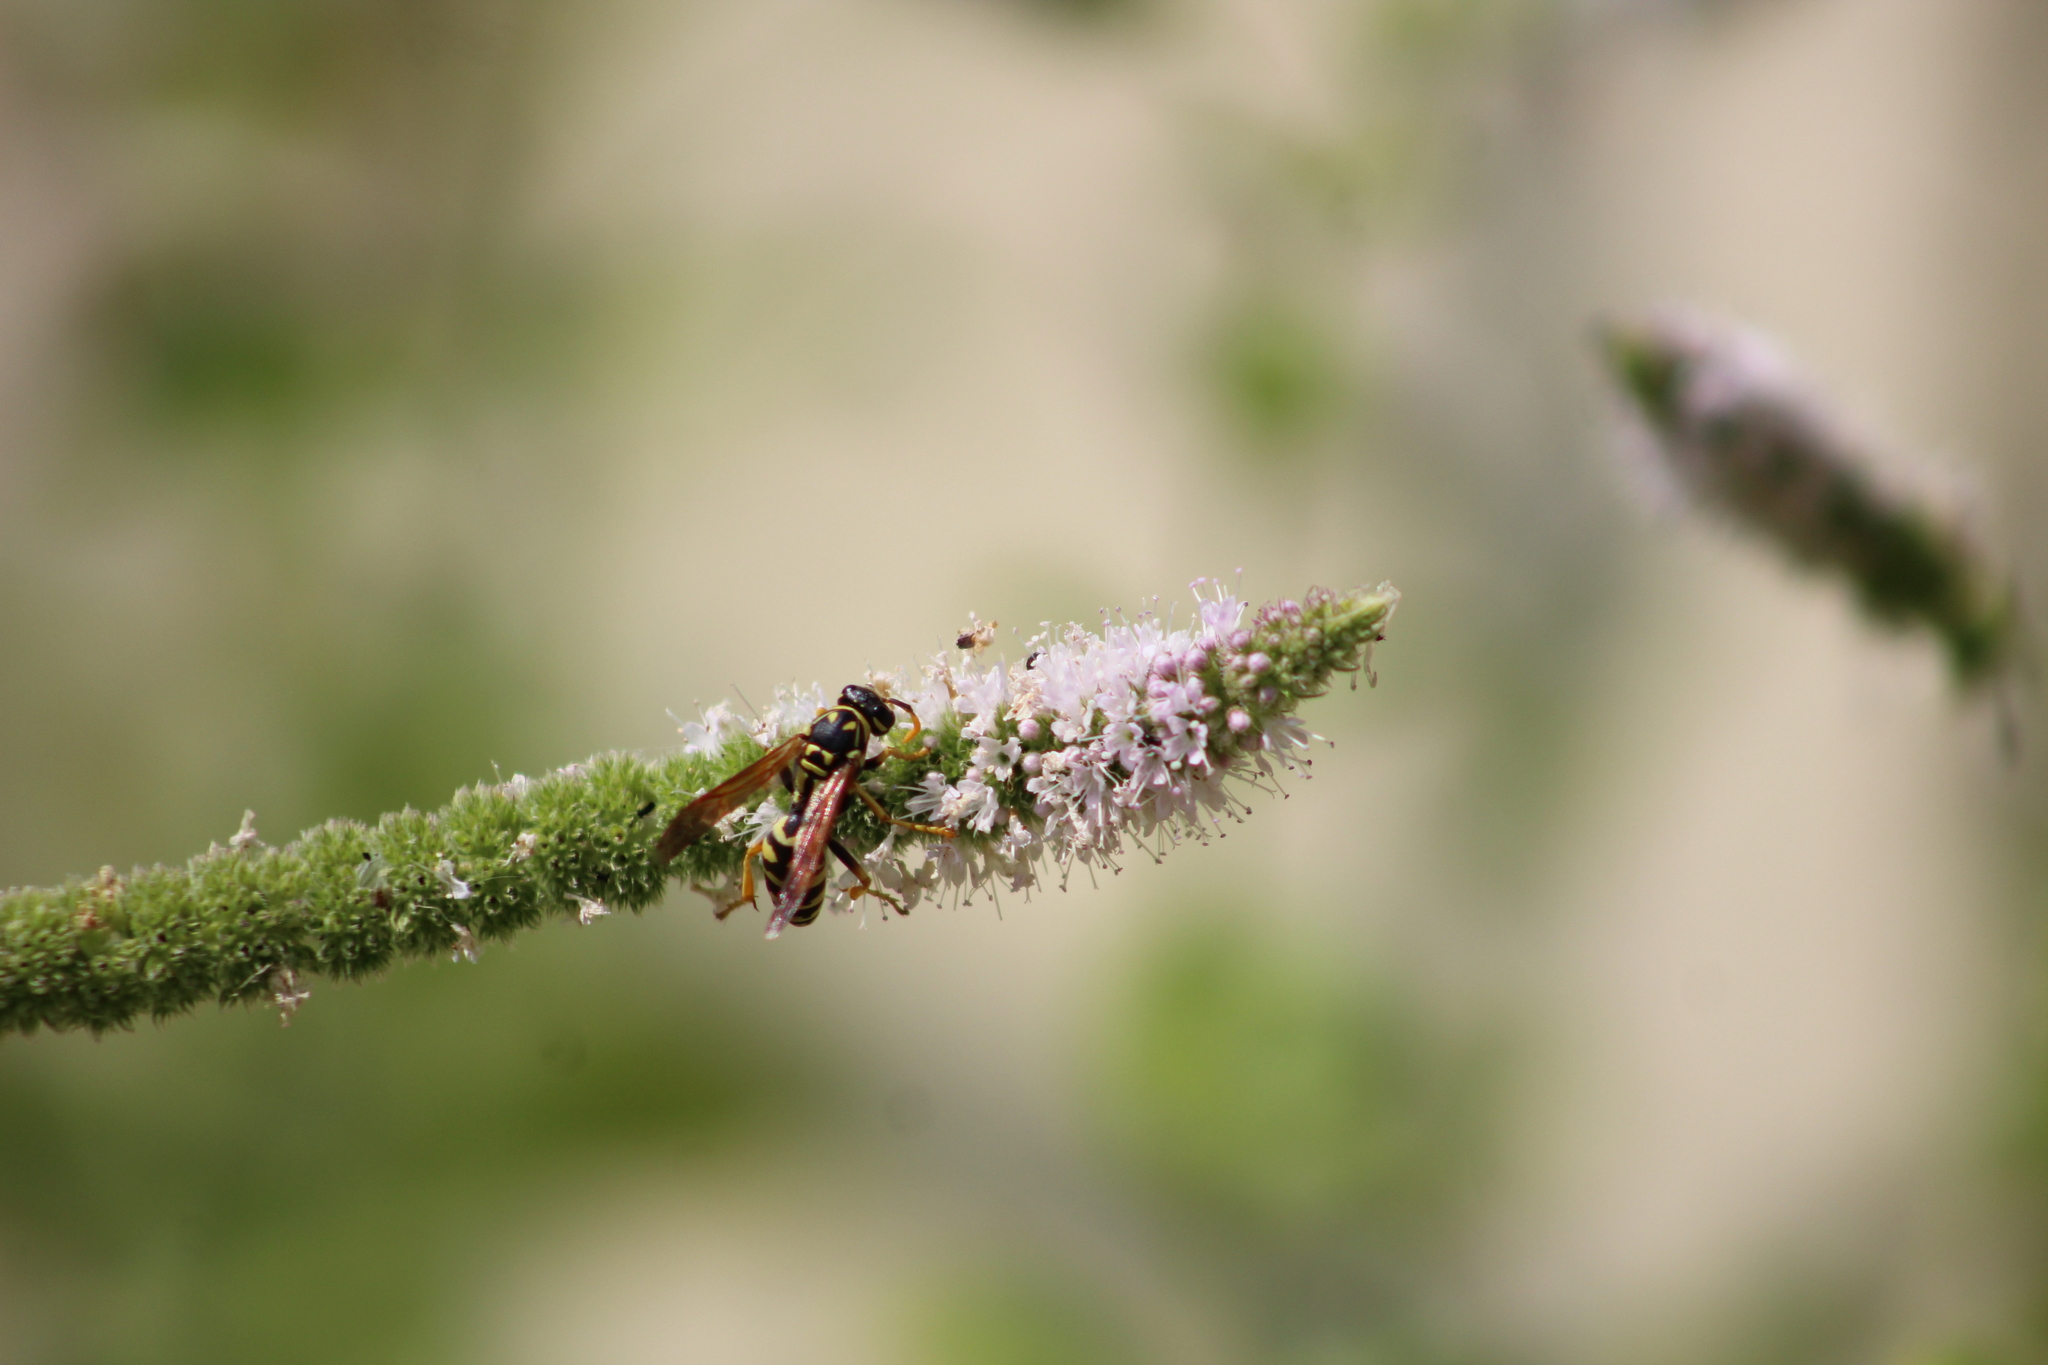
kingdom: Animalia
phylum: Arthropoda
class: Insecta
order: Hymenoptera
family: Eumenidae
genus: Polistes
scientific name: Polistes dominula
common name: Paper wasp
